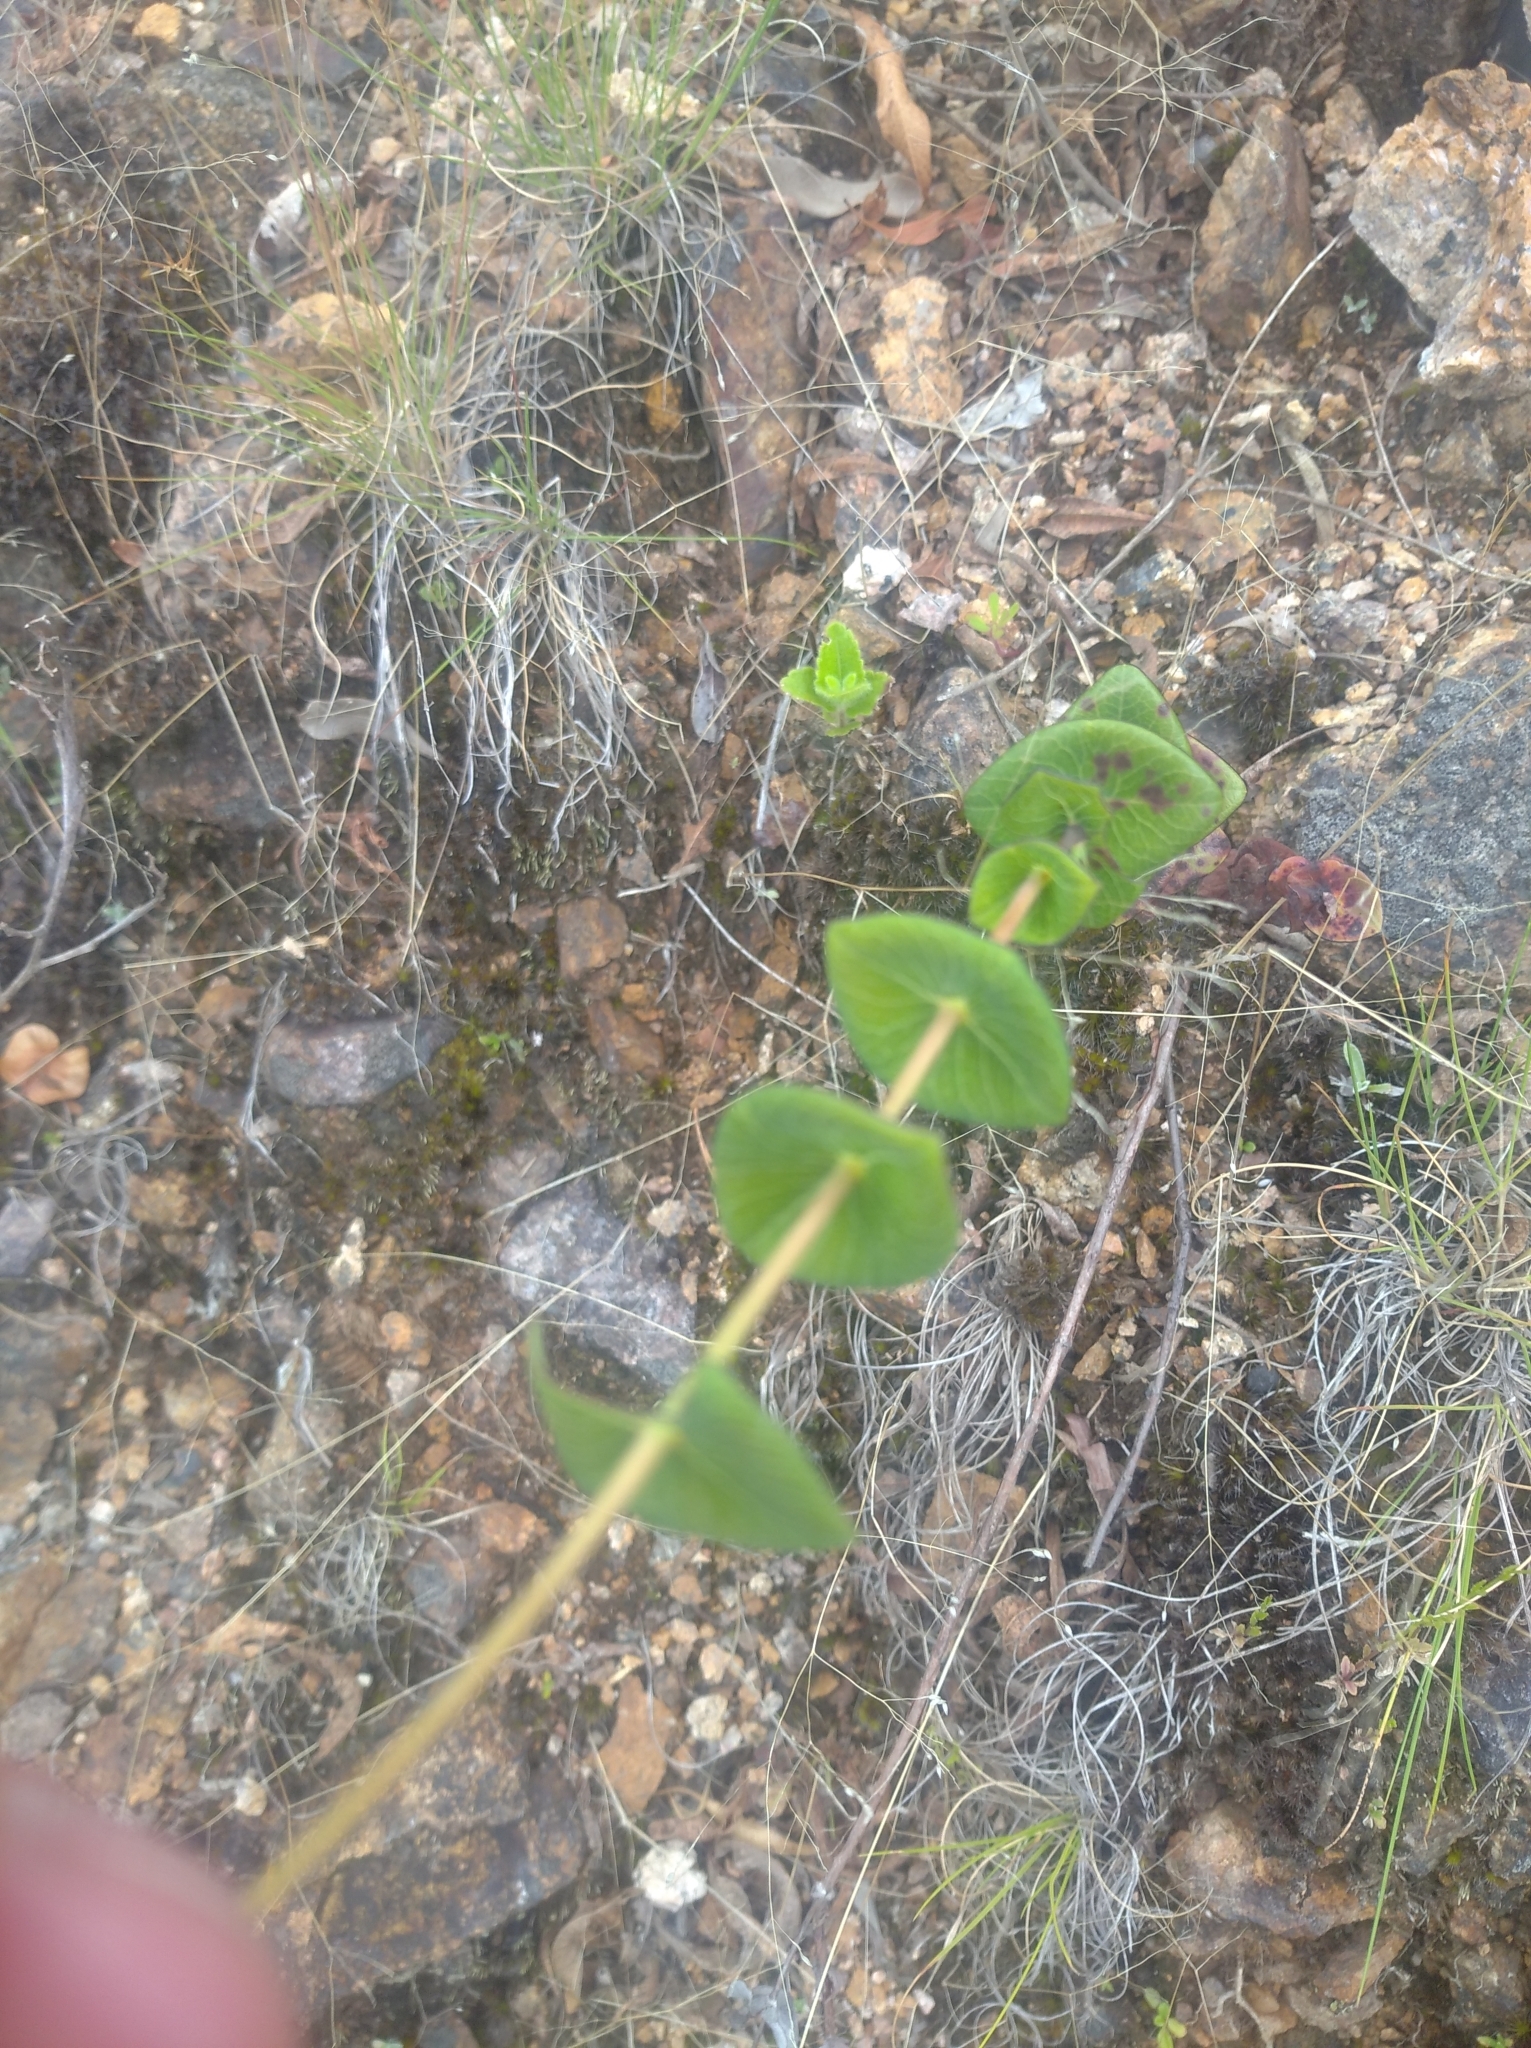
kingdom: Plantae
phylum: Tracheophyta
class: Magnoliopsida
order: Malpighiales
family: Hypericaceae
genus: Hypericum
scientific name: Hypericum connatum
